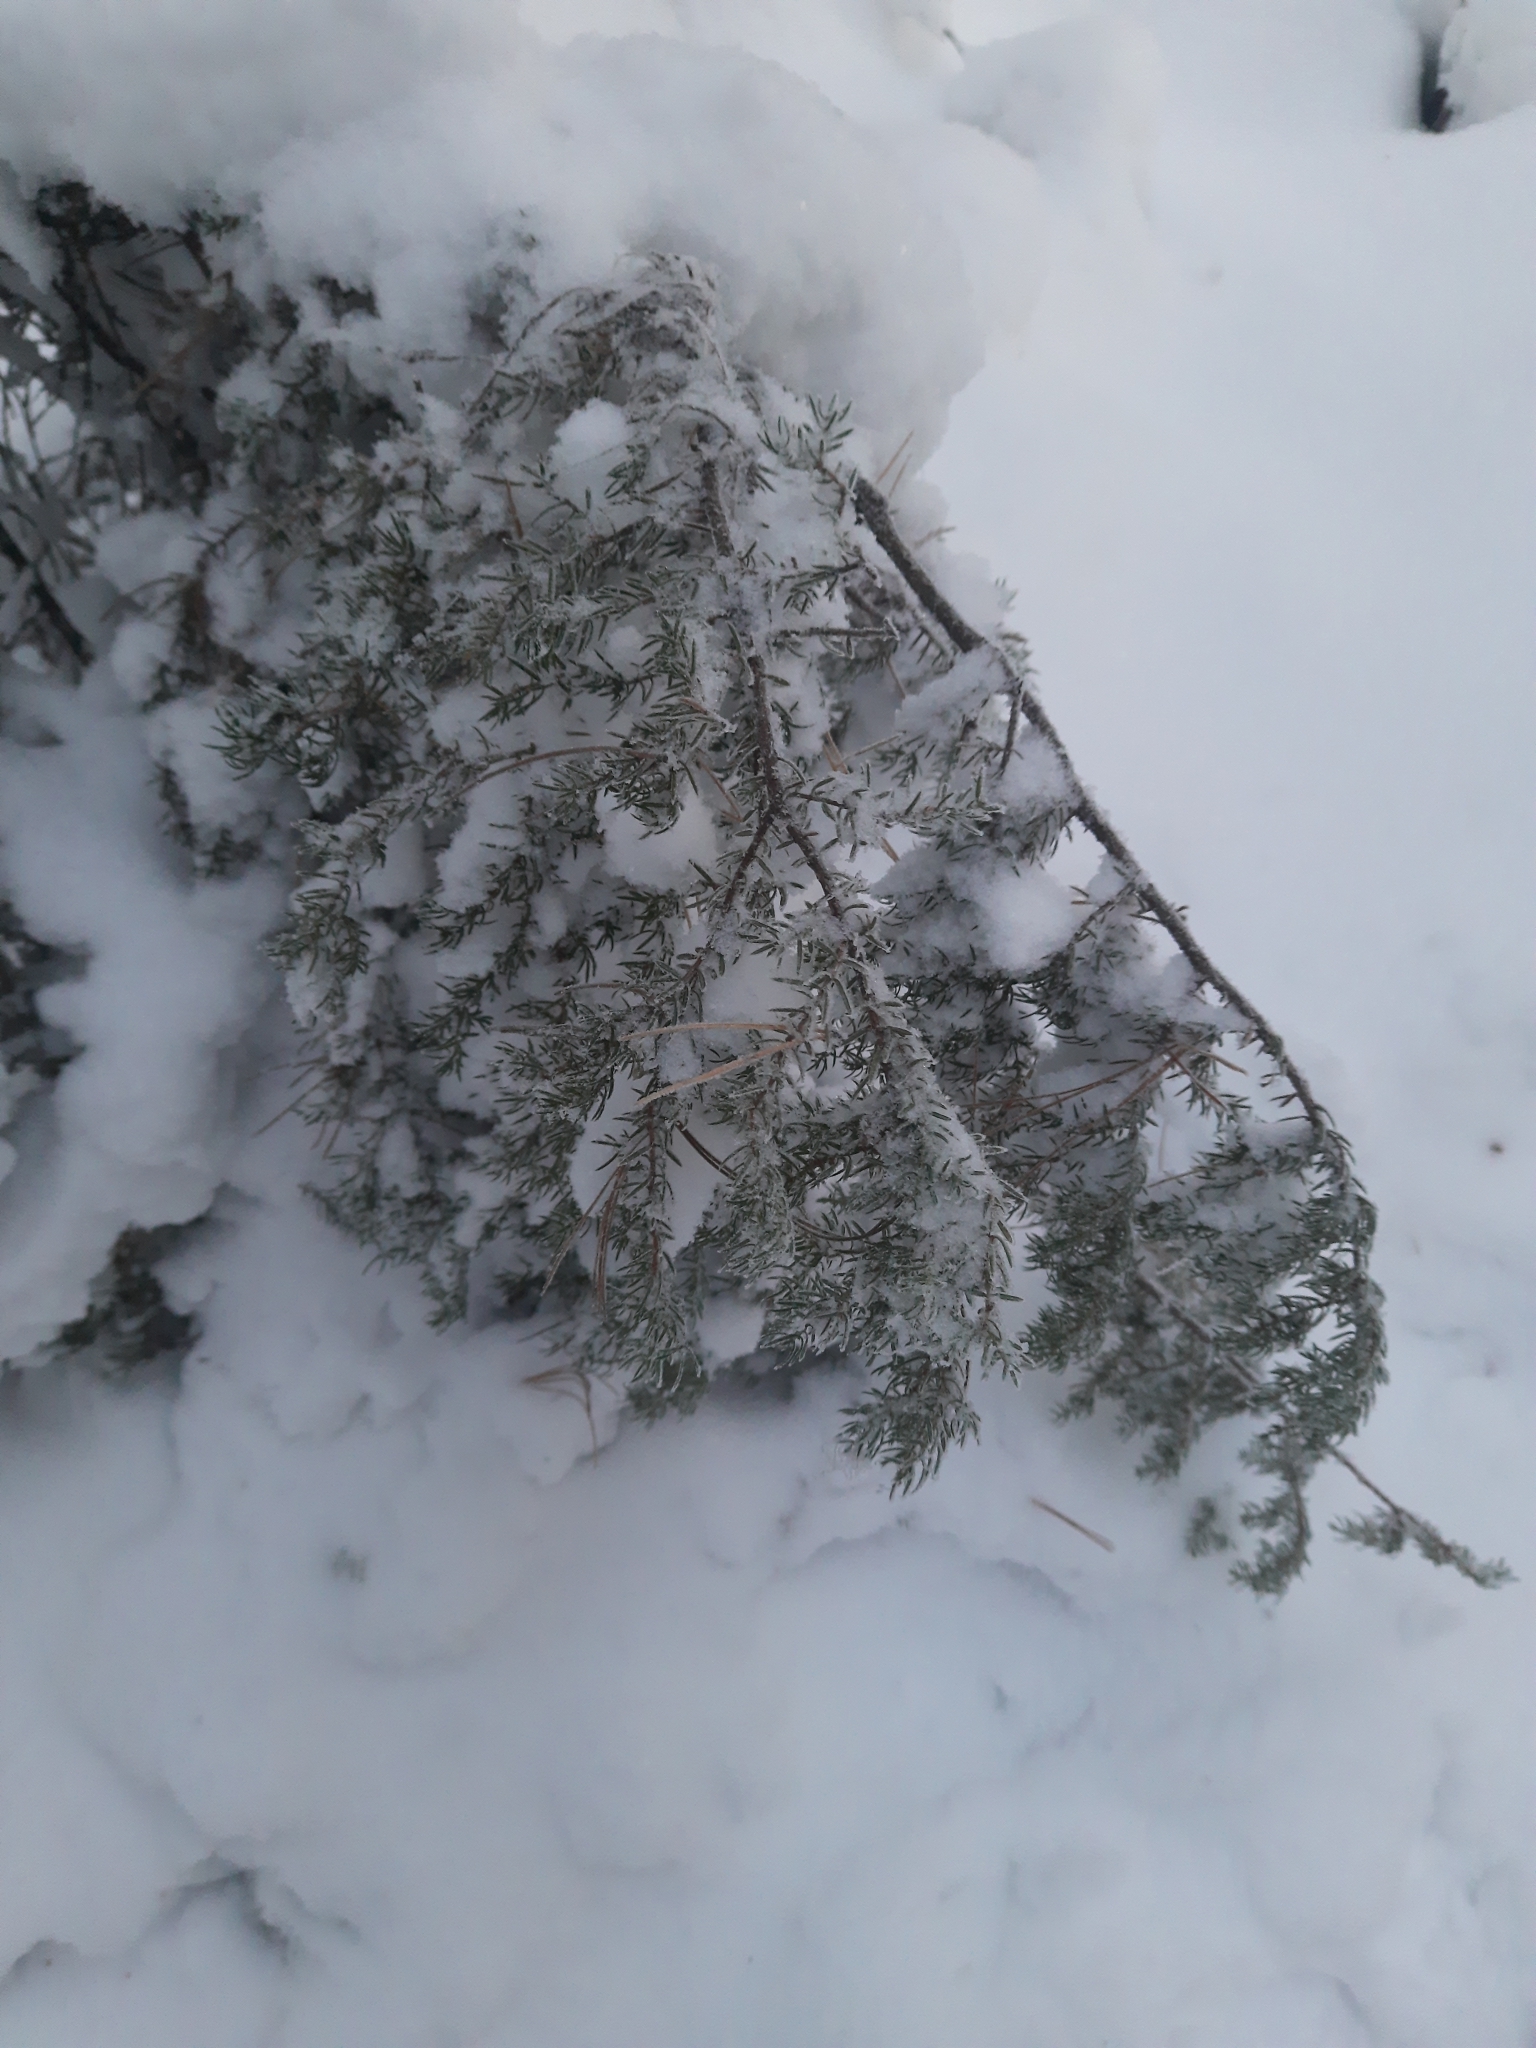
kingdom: Plantae
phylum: Tracheophyta
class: Pinopsida
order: Pinales
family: Cupressaceae
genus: Juniperus
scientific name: Juniperus communis
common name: Common juniper
